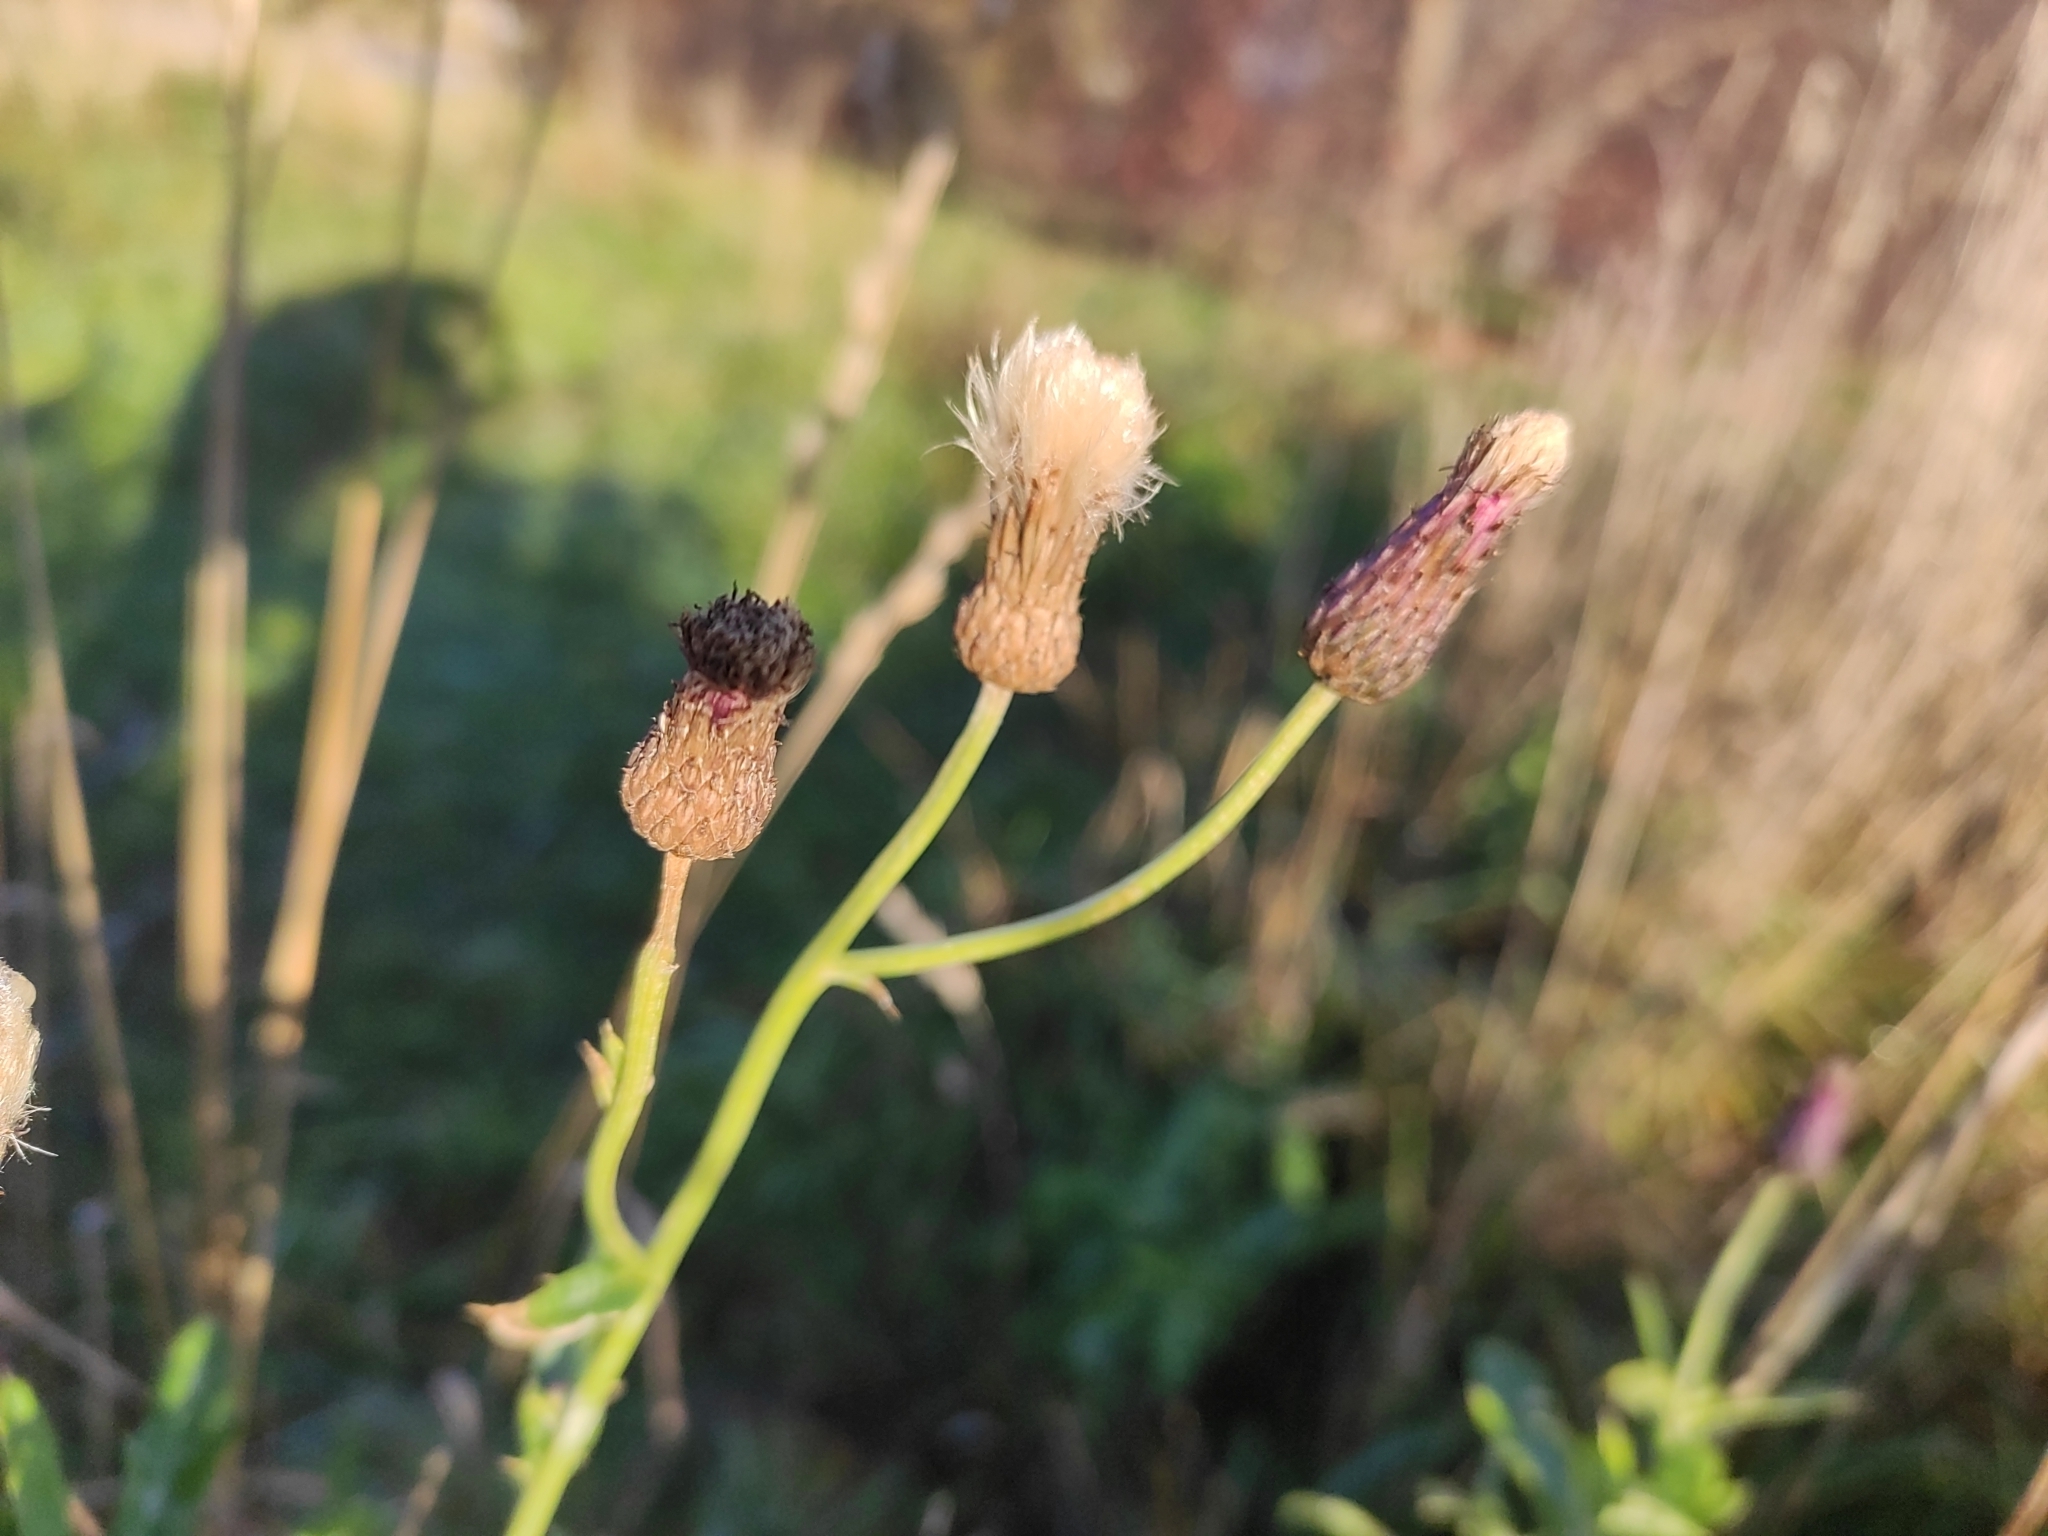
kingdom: Plantae
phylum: Tracheophyta
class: Magnoliopsida
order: Asterales
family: Asteraceae
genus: Cirsium
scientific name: Cirsium arvense
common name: Creeping thistle
